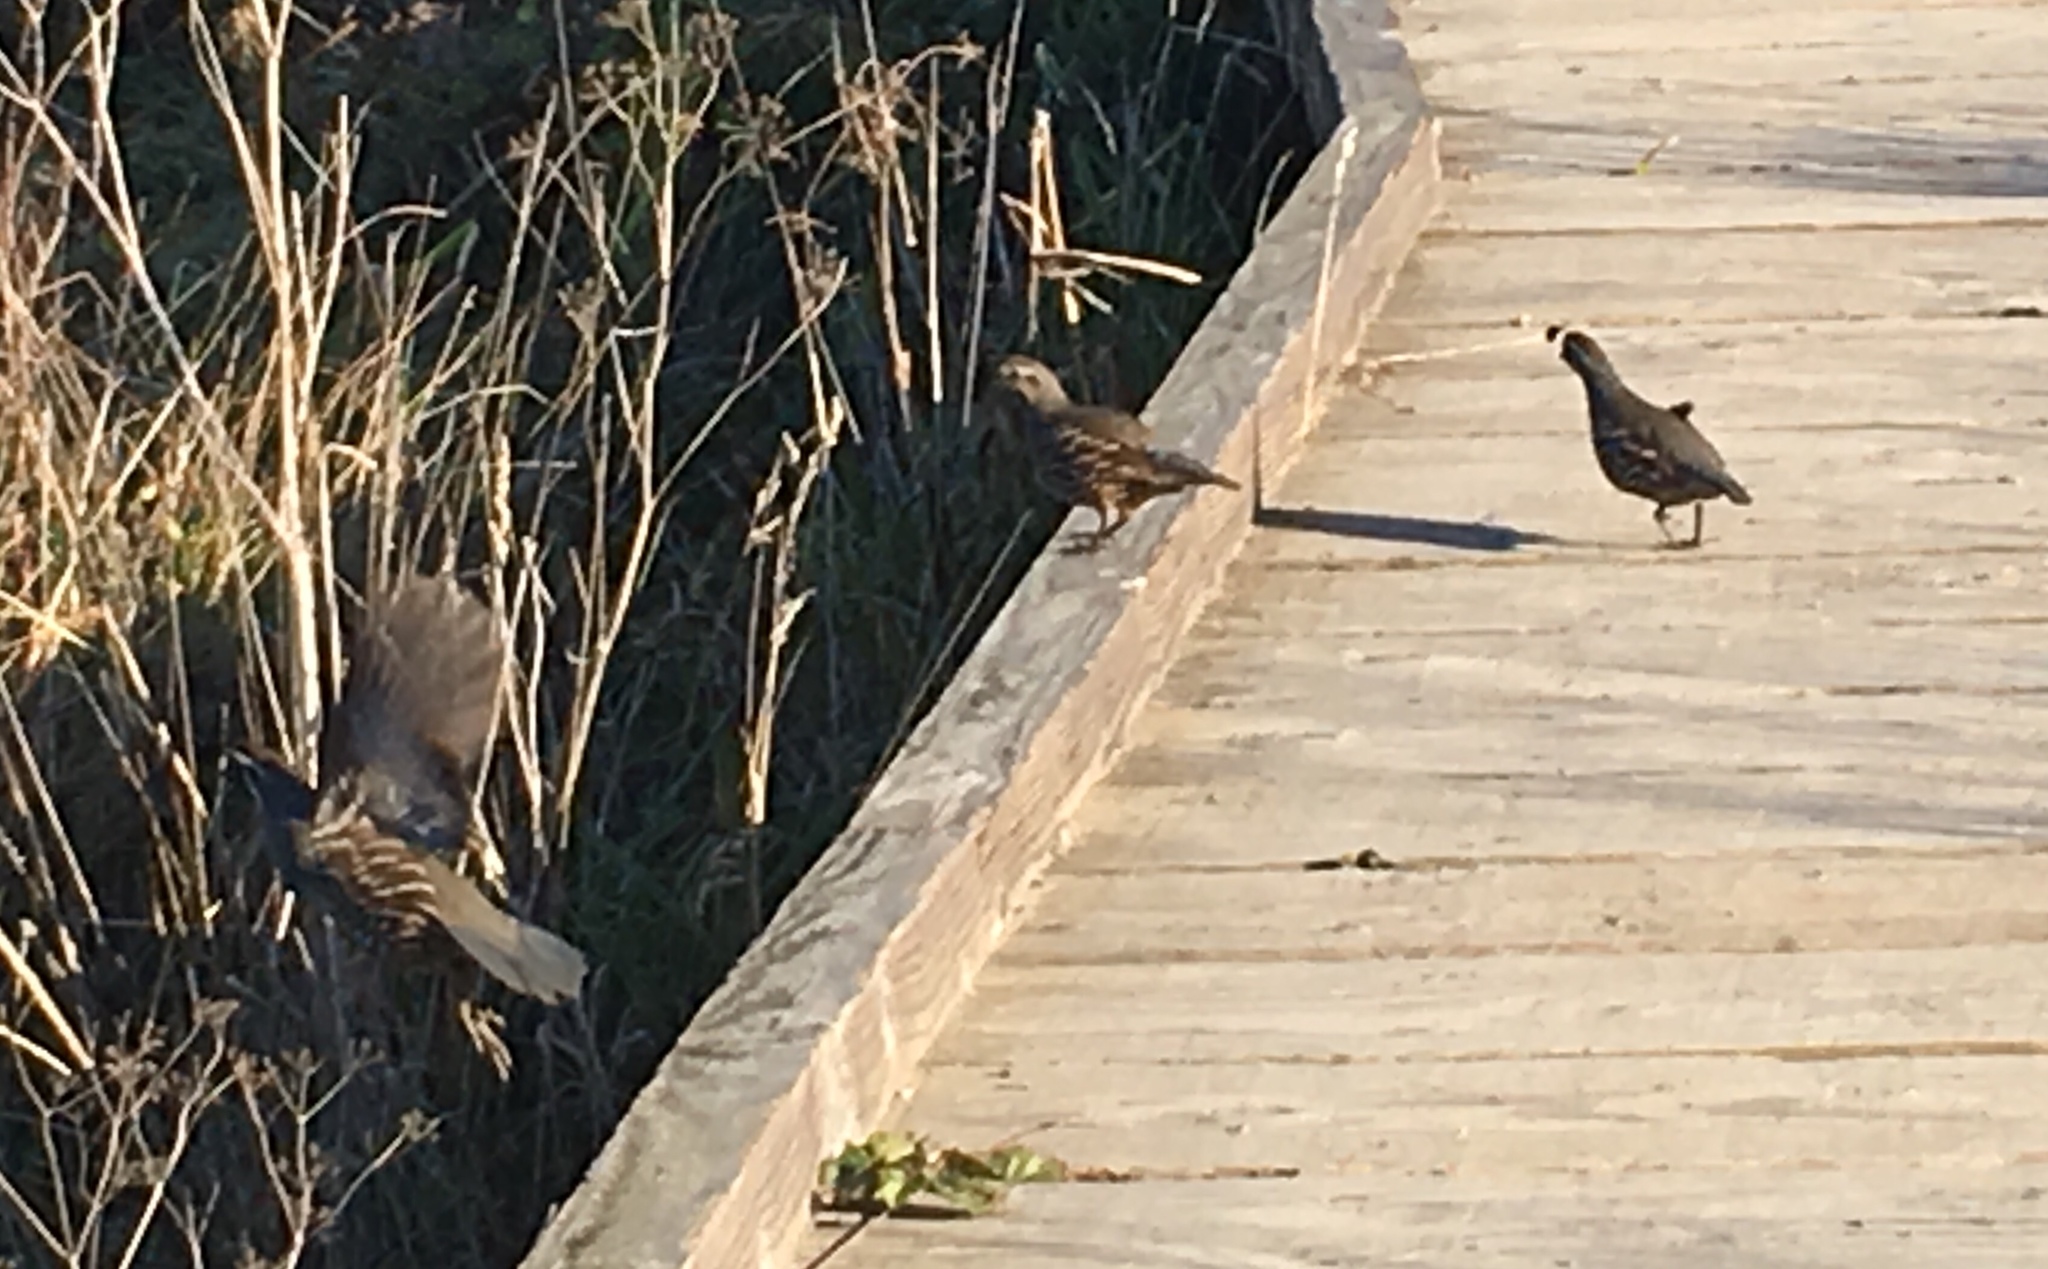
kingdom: Animalia
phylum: Chordata
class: Aves
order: Galliformes
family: Odontophoridae
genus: Callipepla
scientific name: Callipepla californica
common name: California quail
